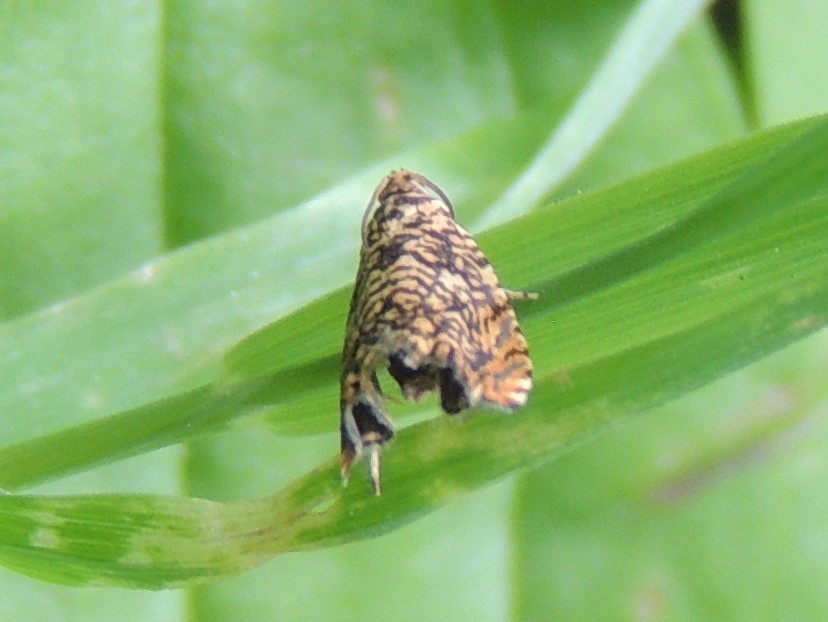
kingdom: Animalia
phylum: Arthropoda
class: Insecta
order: Lepidoptera
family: Tortricidae
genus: Dichrorampha
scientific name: Dichrorampha leopardana
